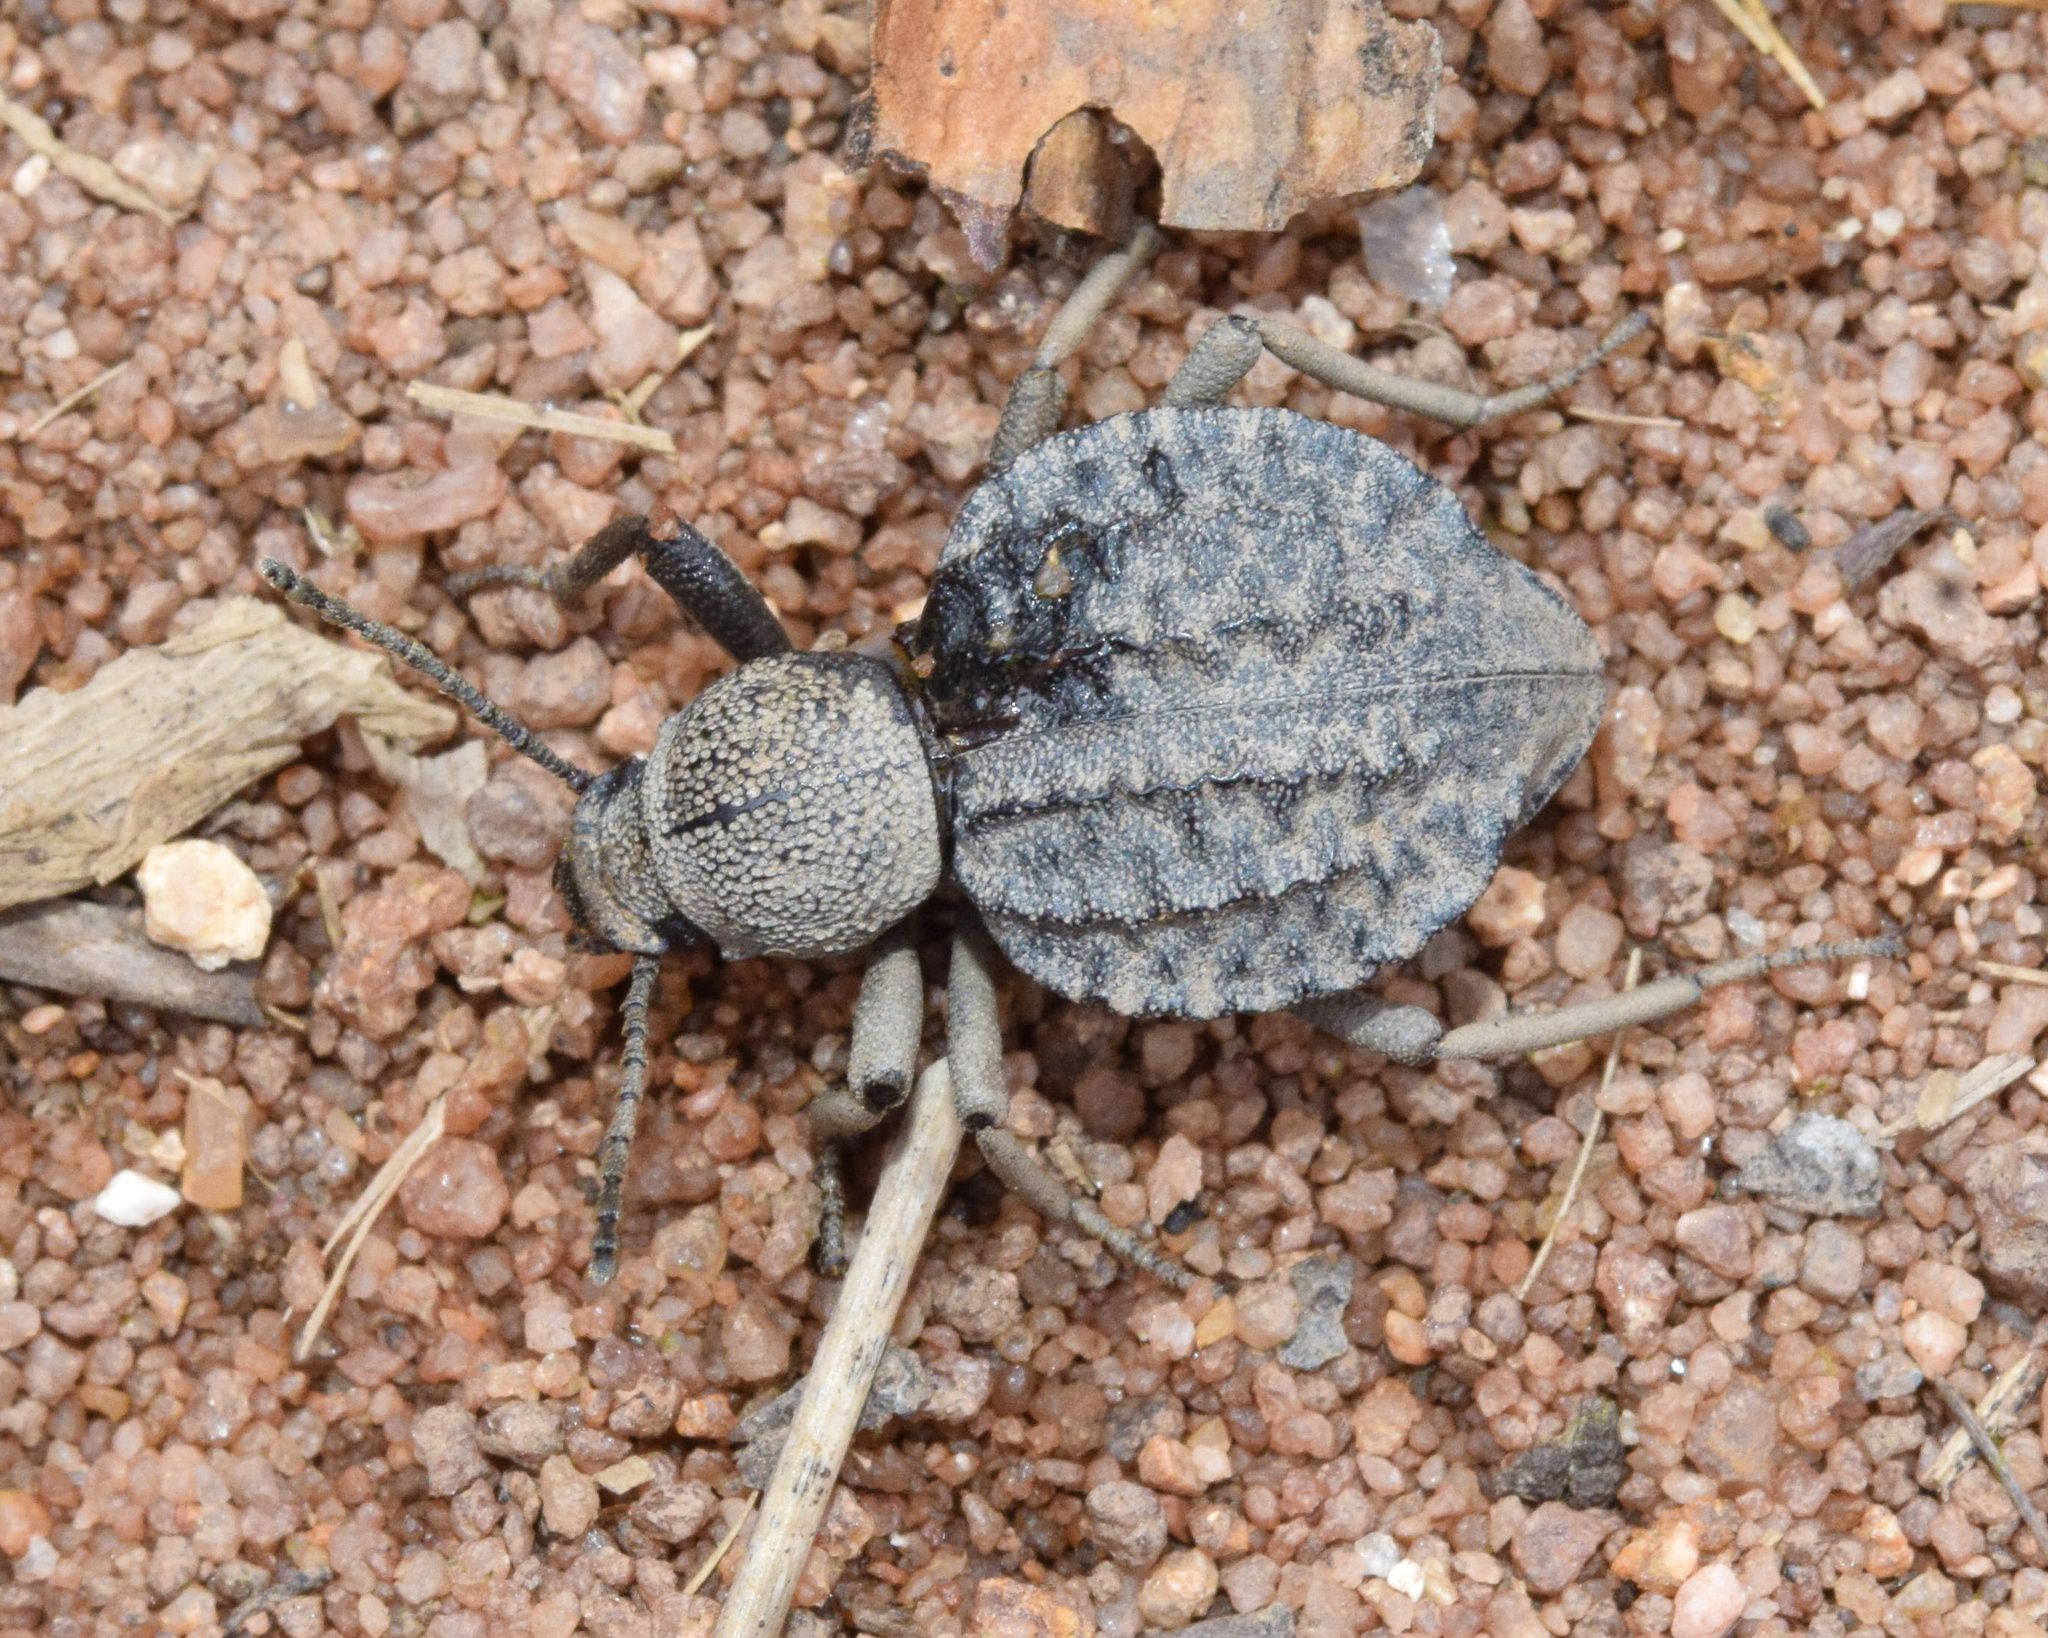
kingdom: Animalia
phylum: Arthropoda
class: Insecta
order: Coleoptera
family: Tenebrionidae
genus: Distretus
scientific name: Distretus undatus
